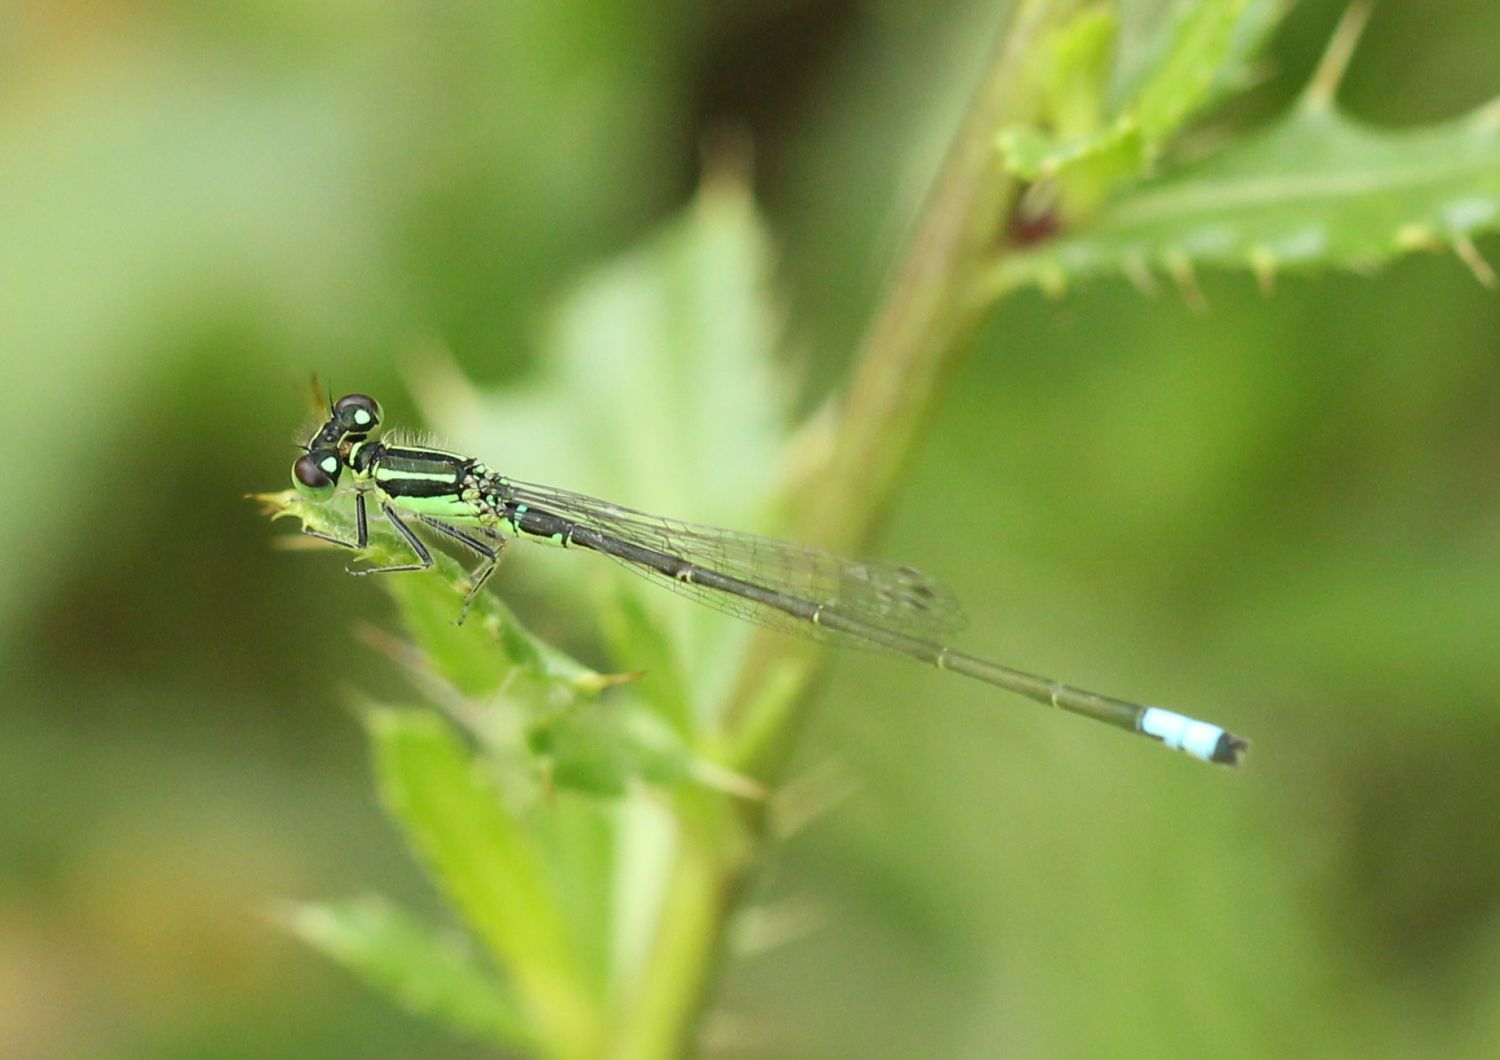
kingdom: Animalia
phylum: Arthropoda
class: Insecta
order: Odonata
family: Coenagrionidae
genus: Ischnura
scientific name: Ischnura verticalis
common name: Eastern forktail
